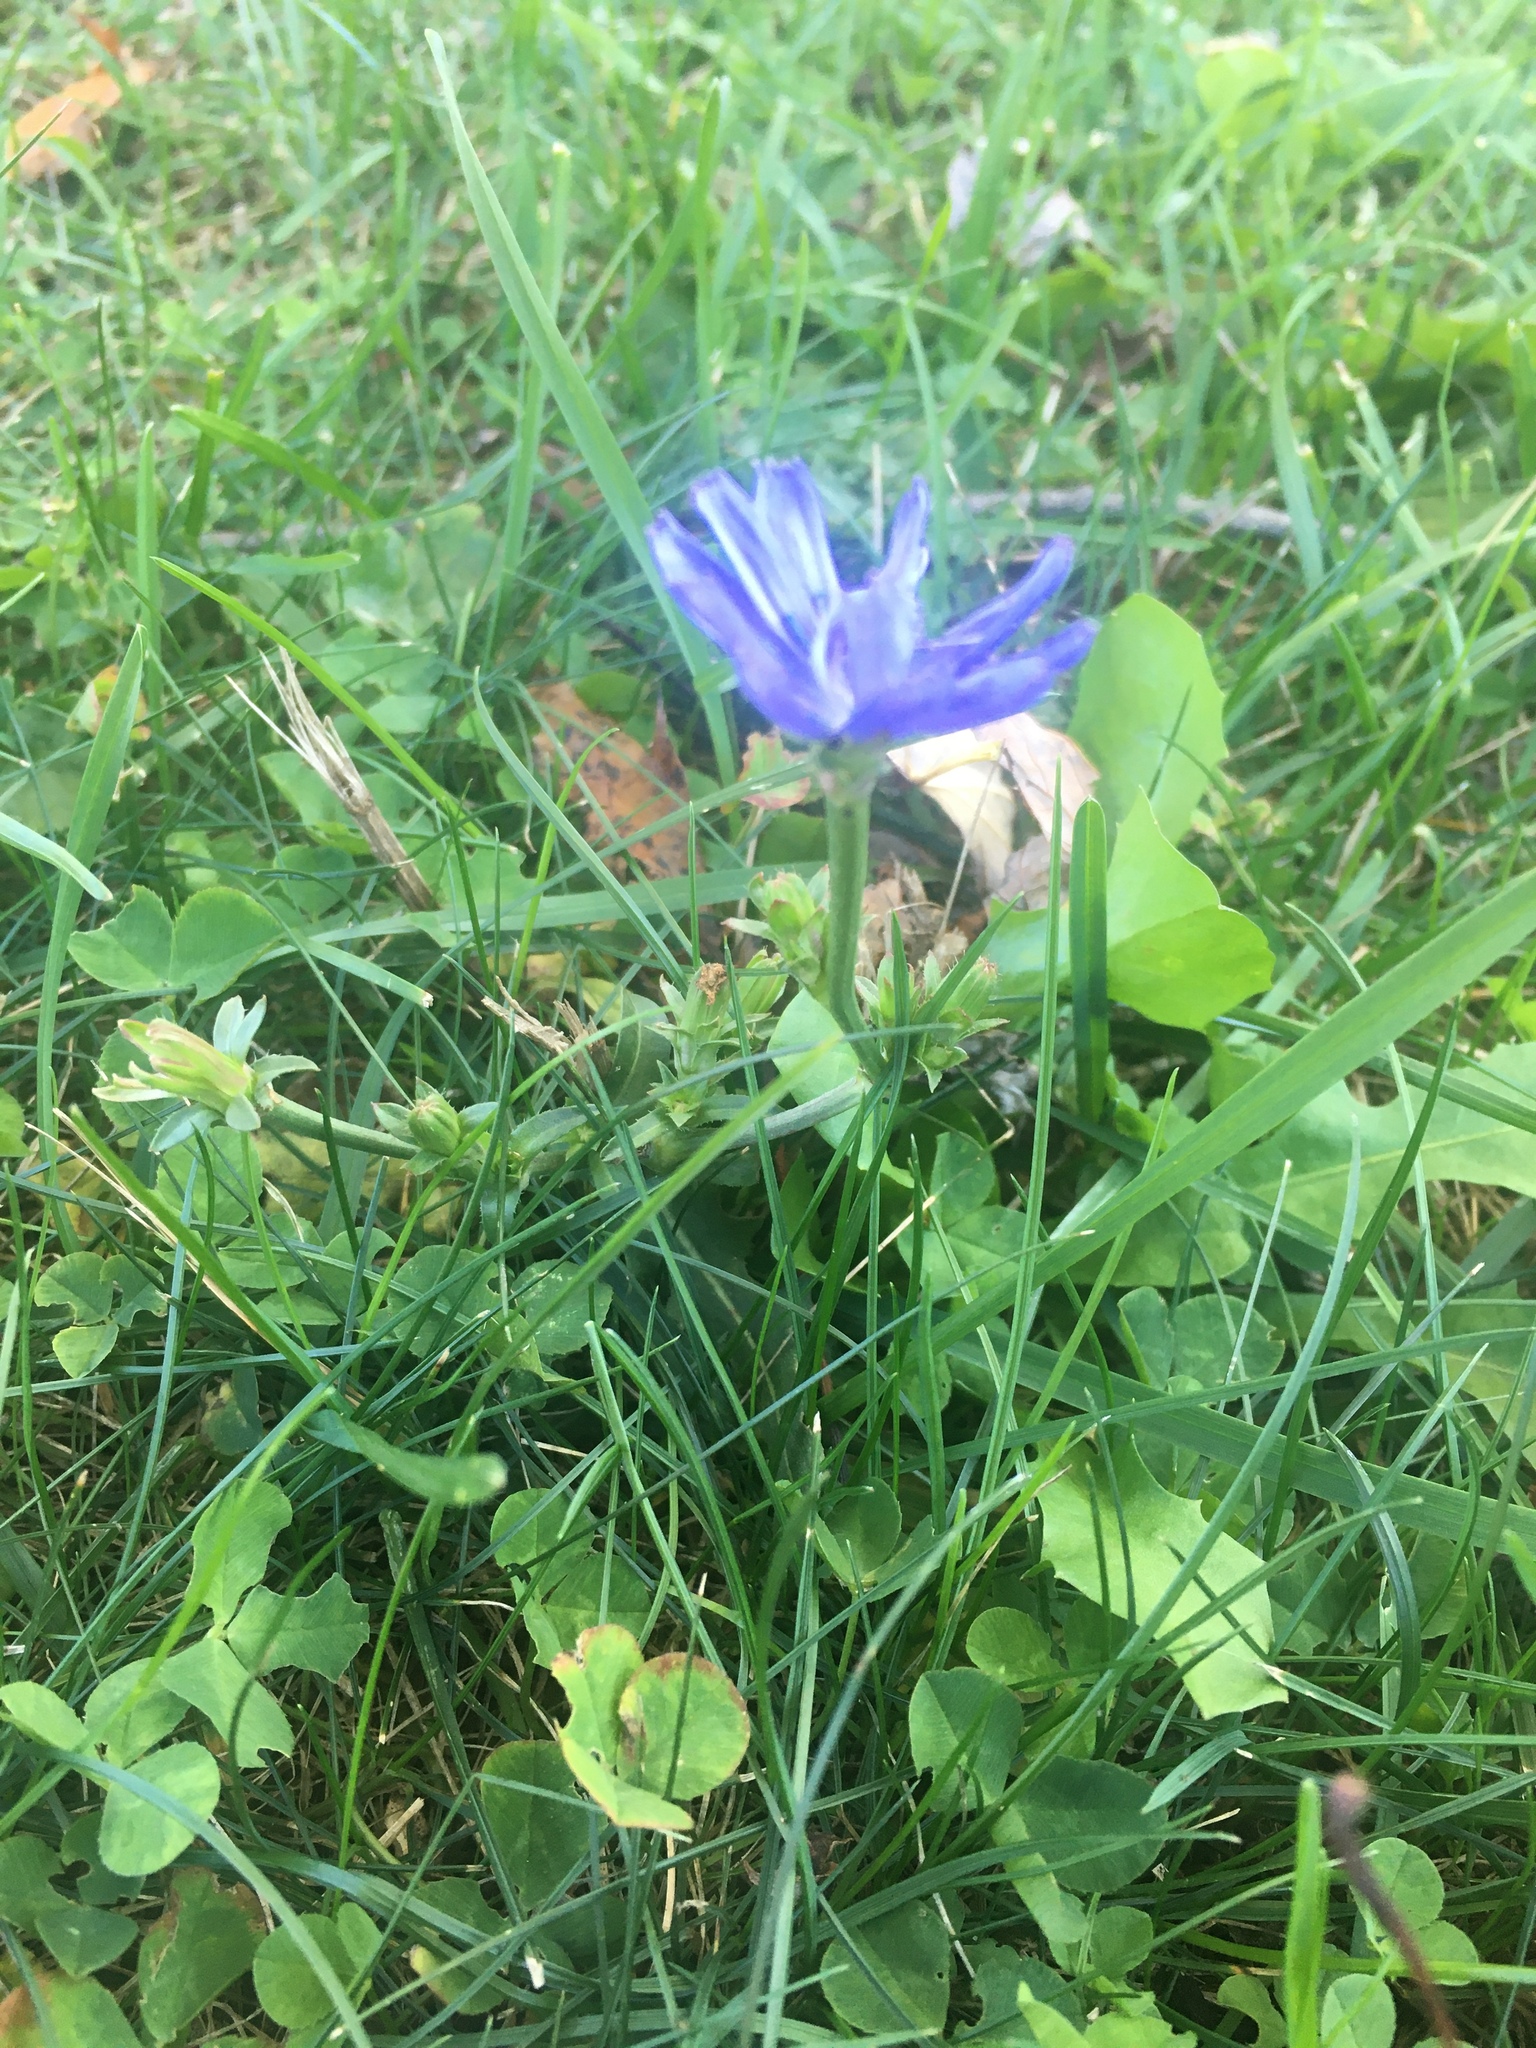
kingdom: Plantae
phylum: Tracheophyta
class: Magnoliopsida
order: Asterales
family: Asteraceae
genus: Cichorium
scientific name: Cichorium intybus
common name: Chicory
